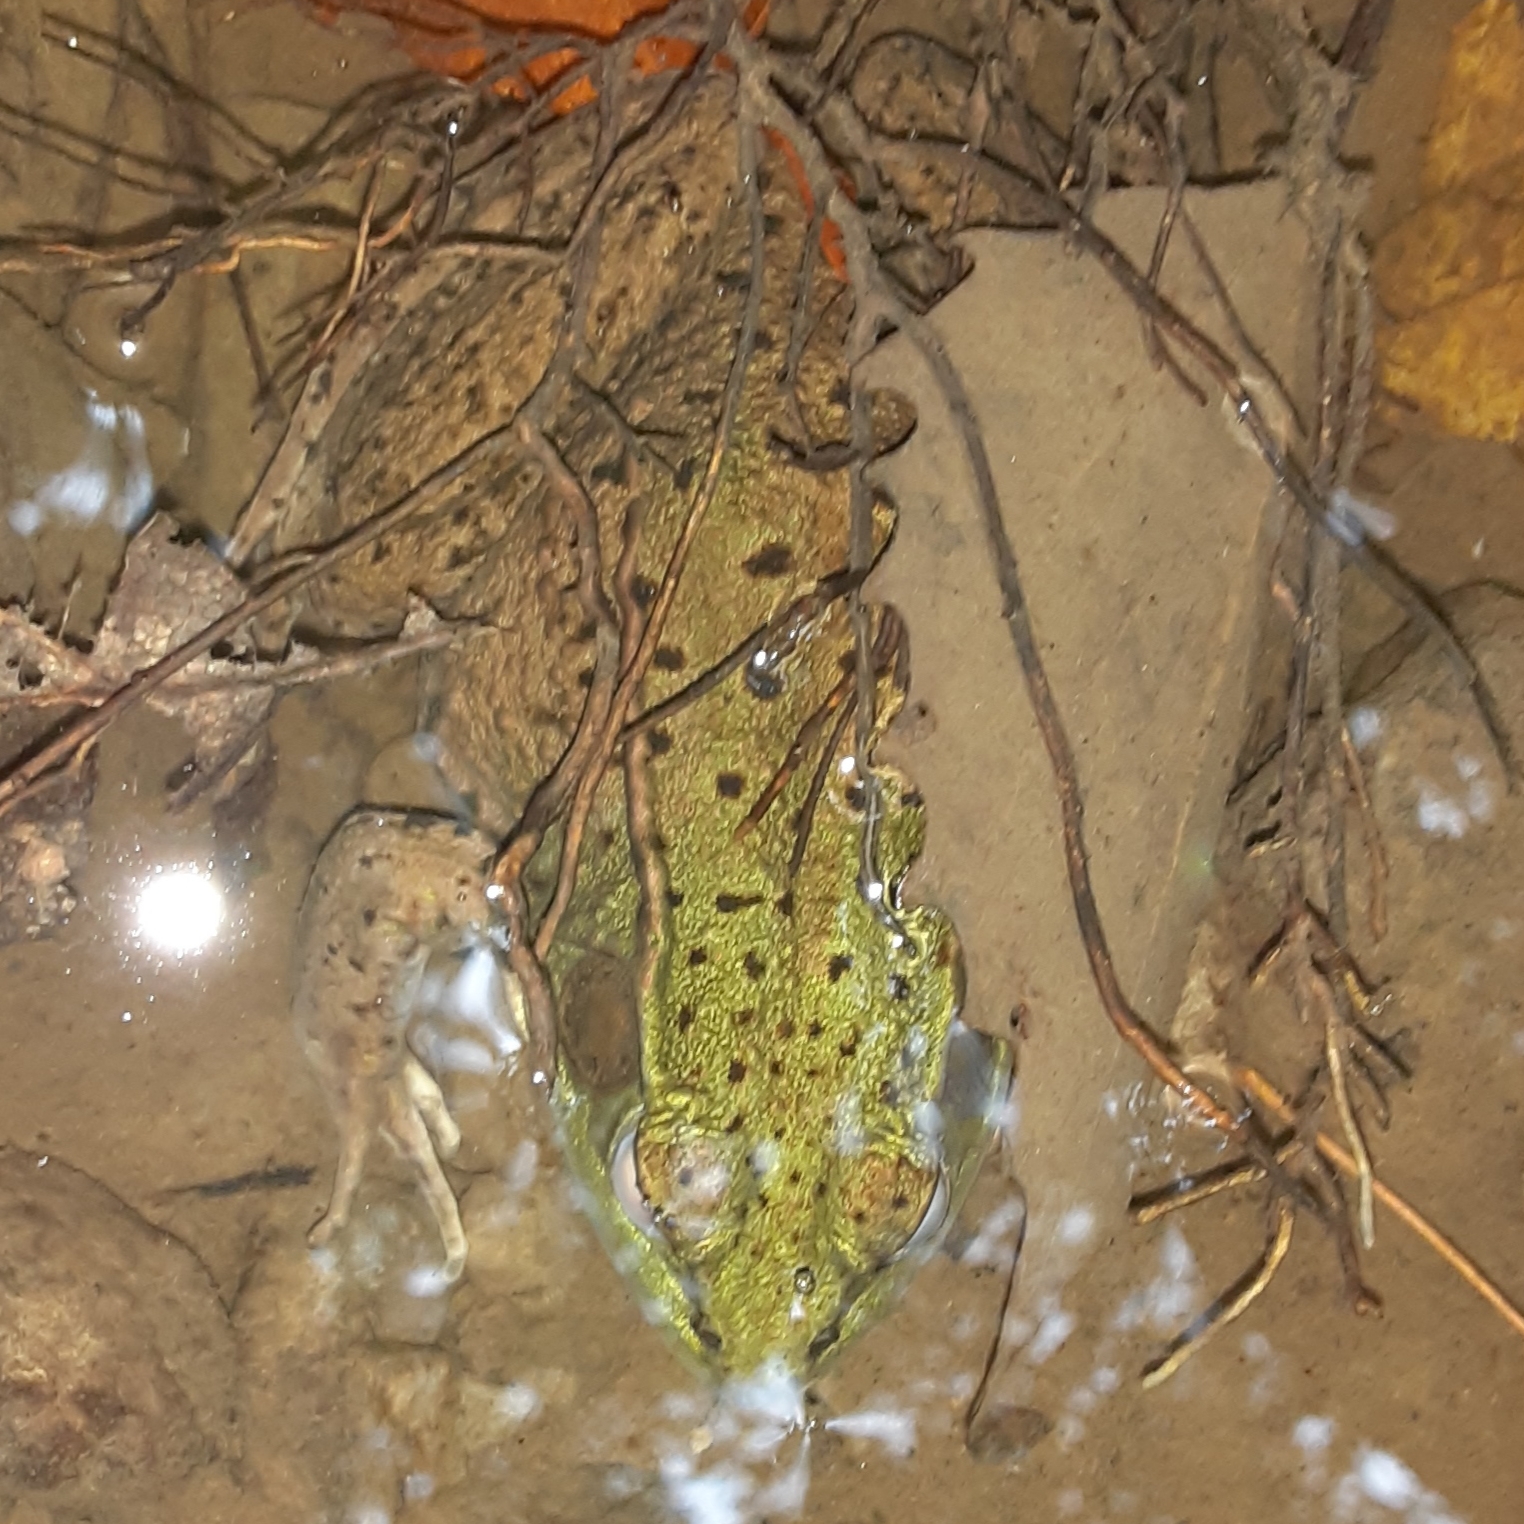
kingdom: Animalia
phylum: Chordata
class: Amphibia
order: Anura
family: Ranidae
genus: Lithobates
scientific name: Lithobates clamitans
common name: Green frog
